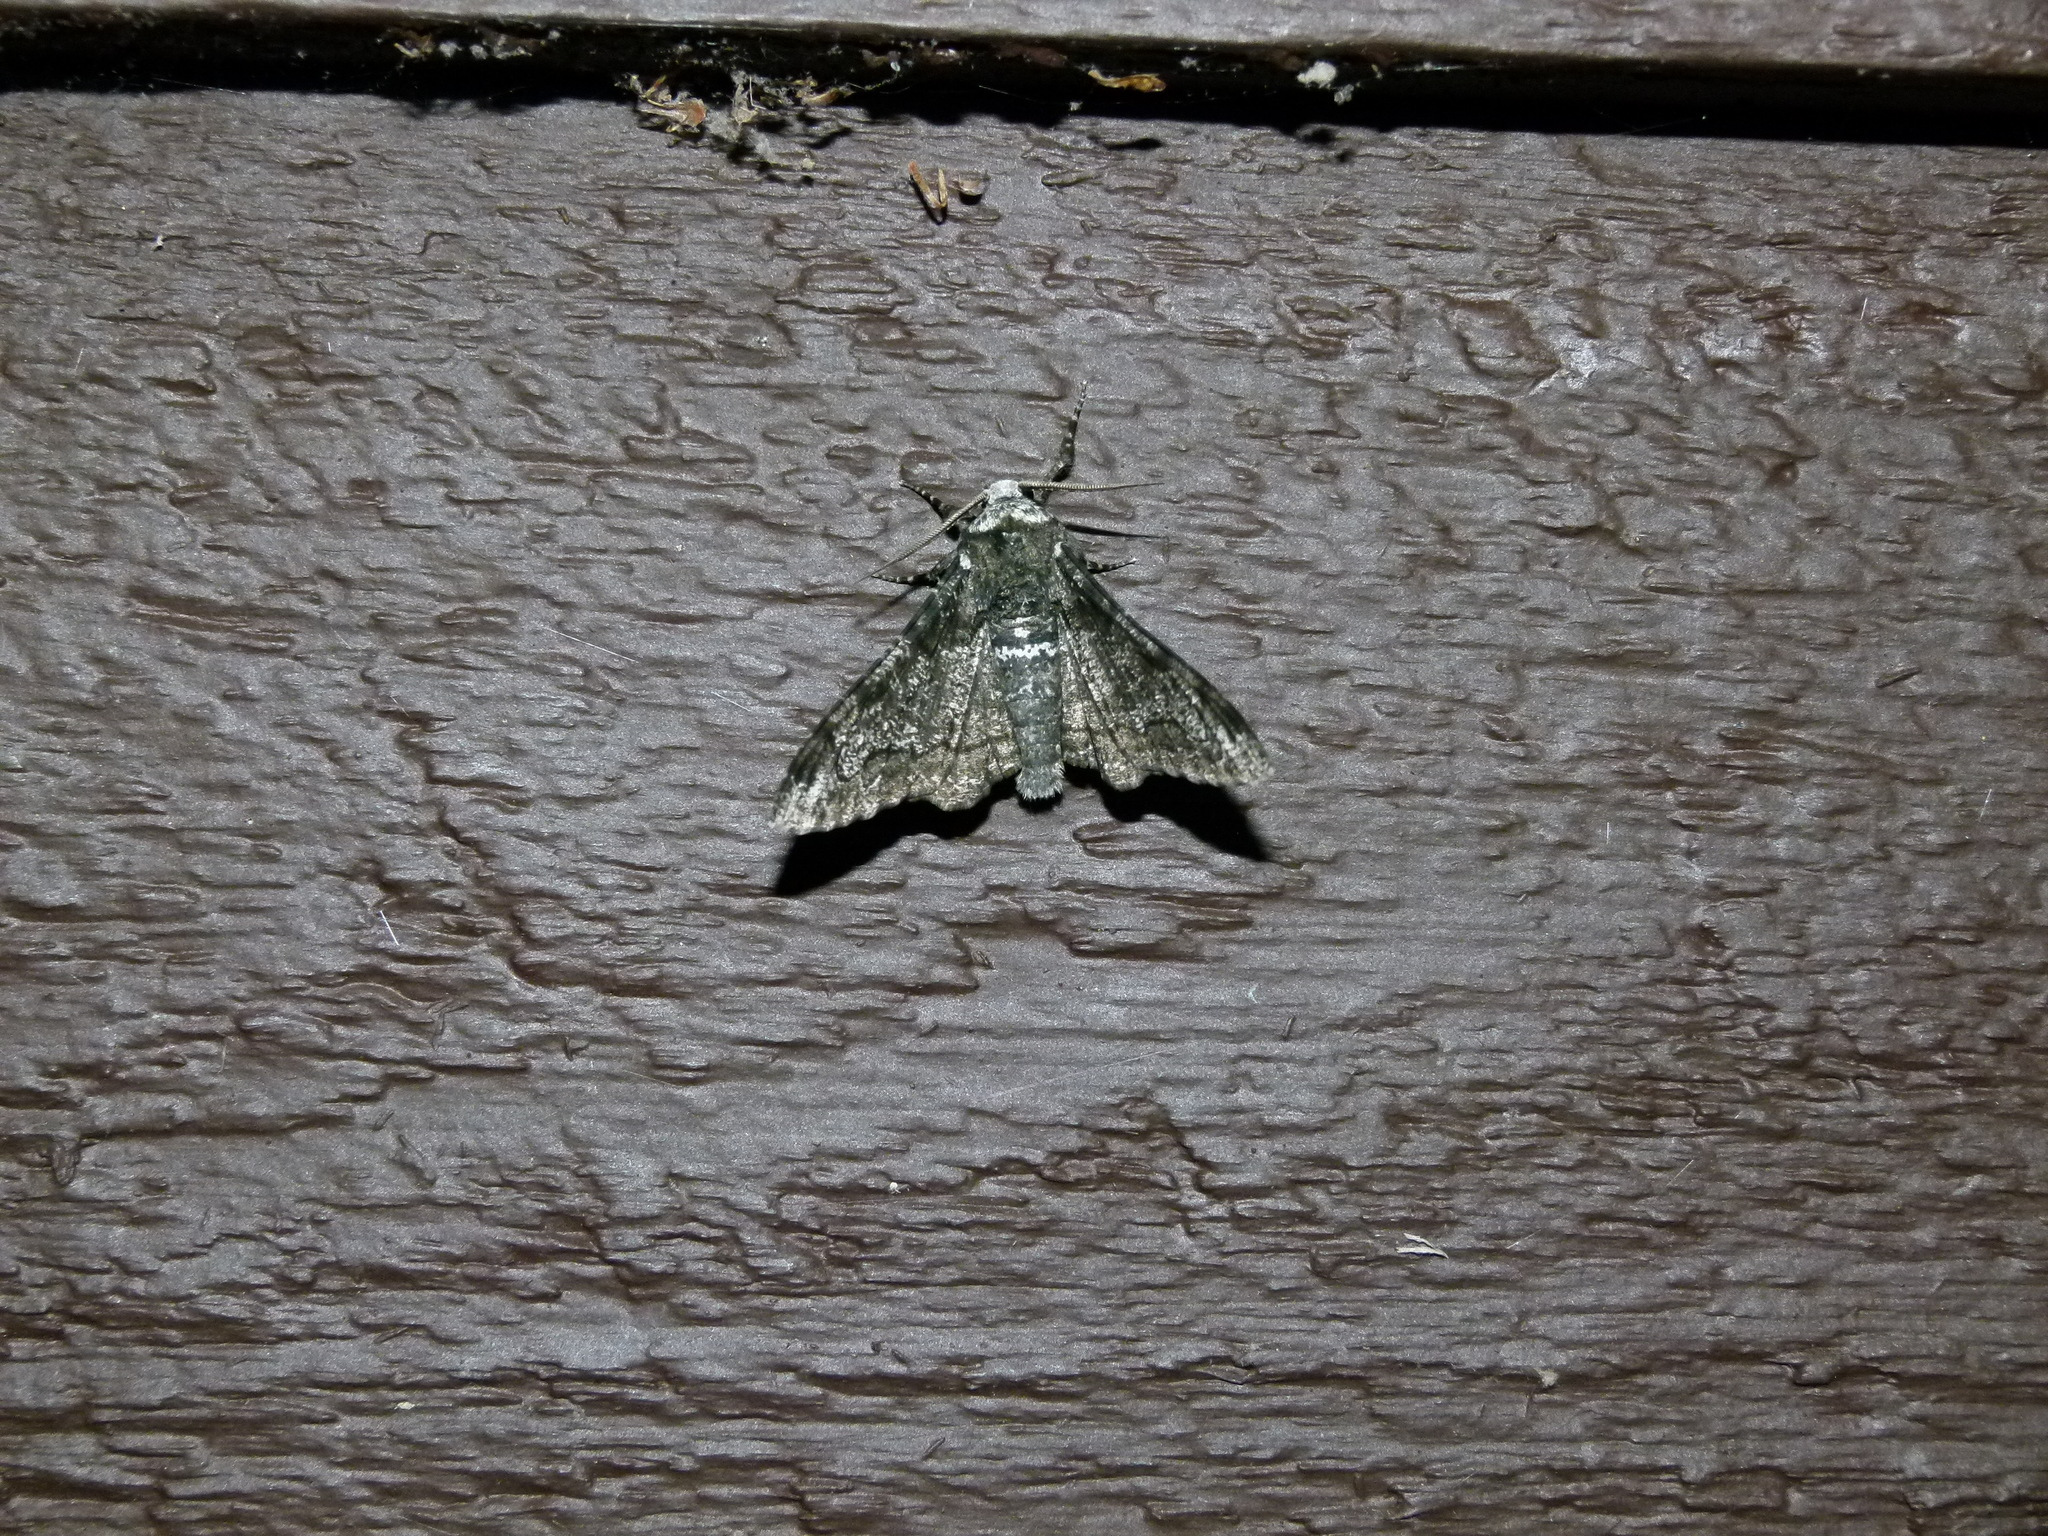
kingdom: Animalia
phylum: Arthropoda
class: Insecta
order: Lepidoptera
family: Geometridae
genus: Biston
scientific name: Biston betularia
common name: Peppered moth
